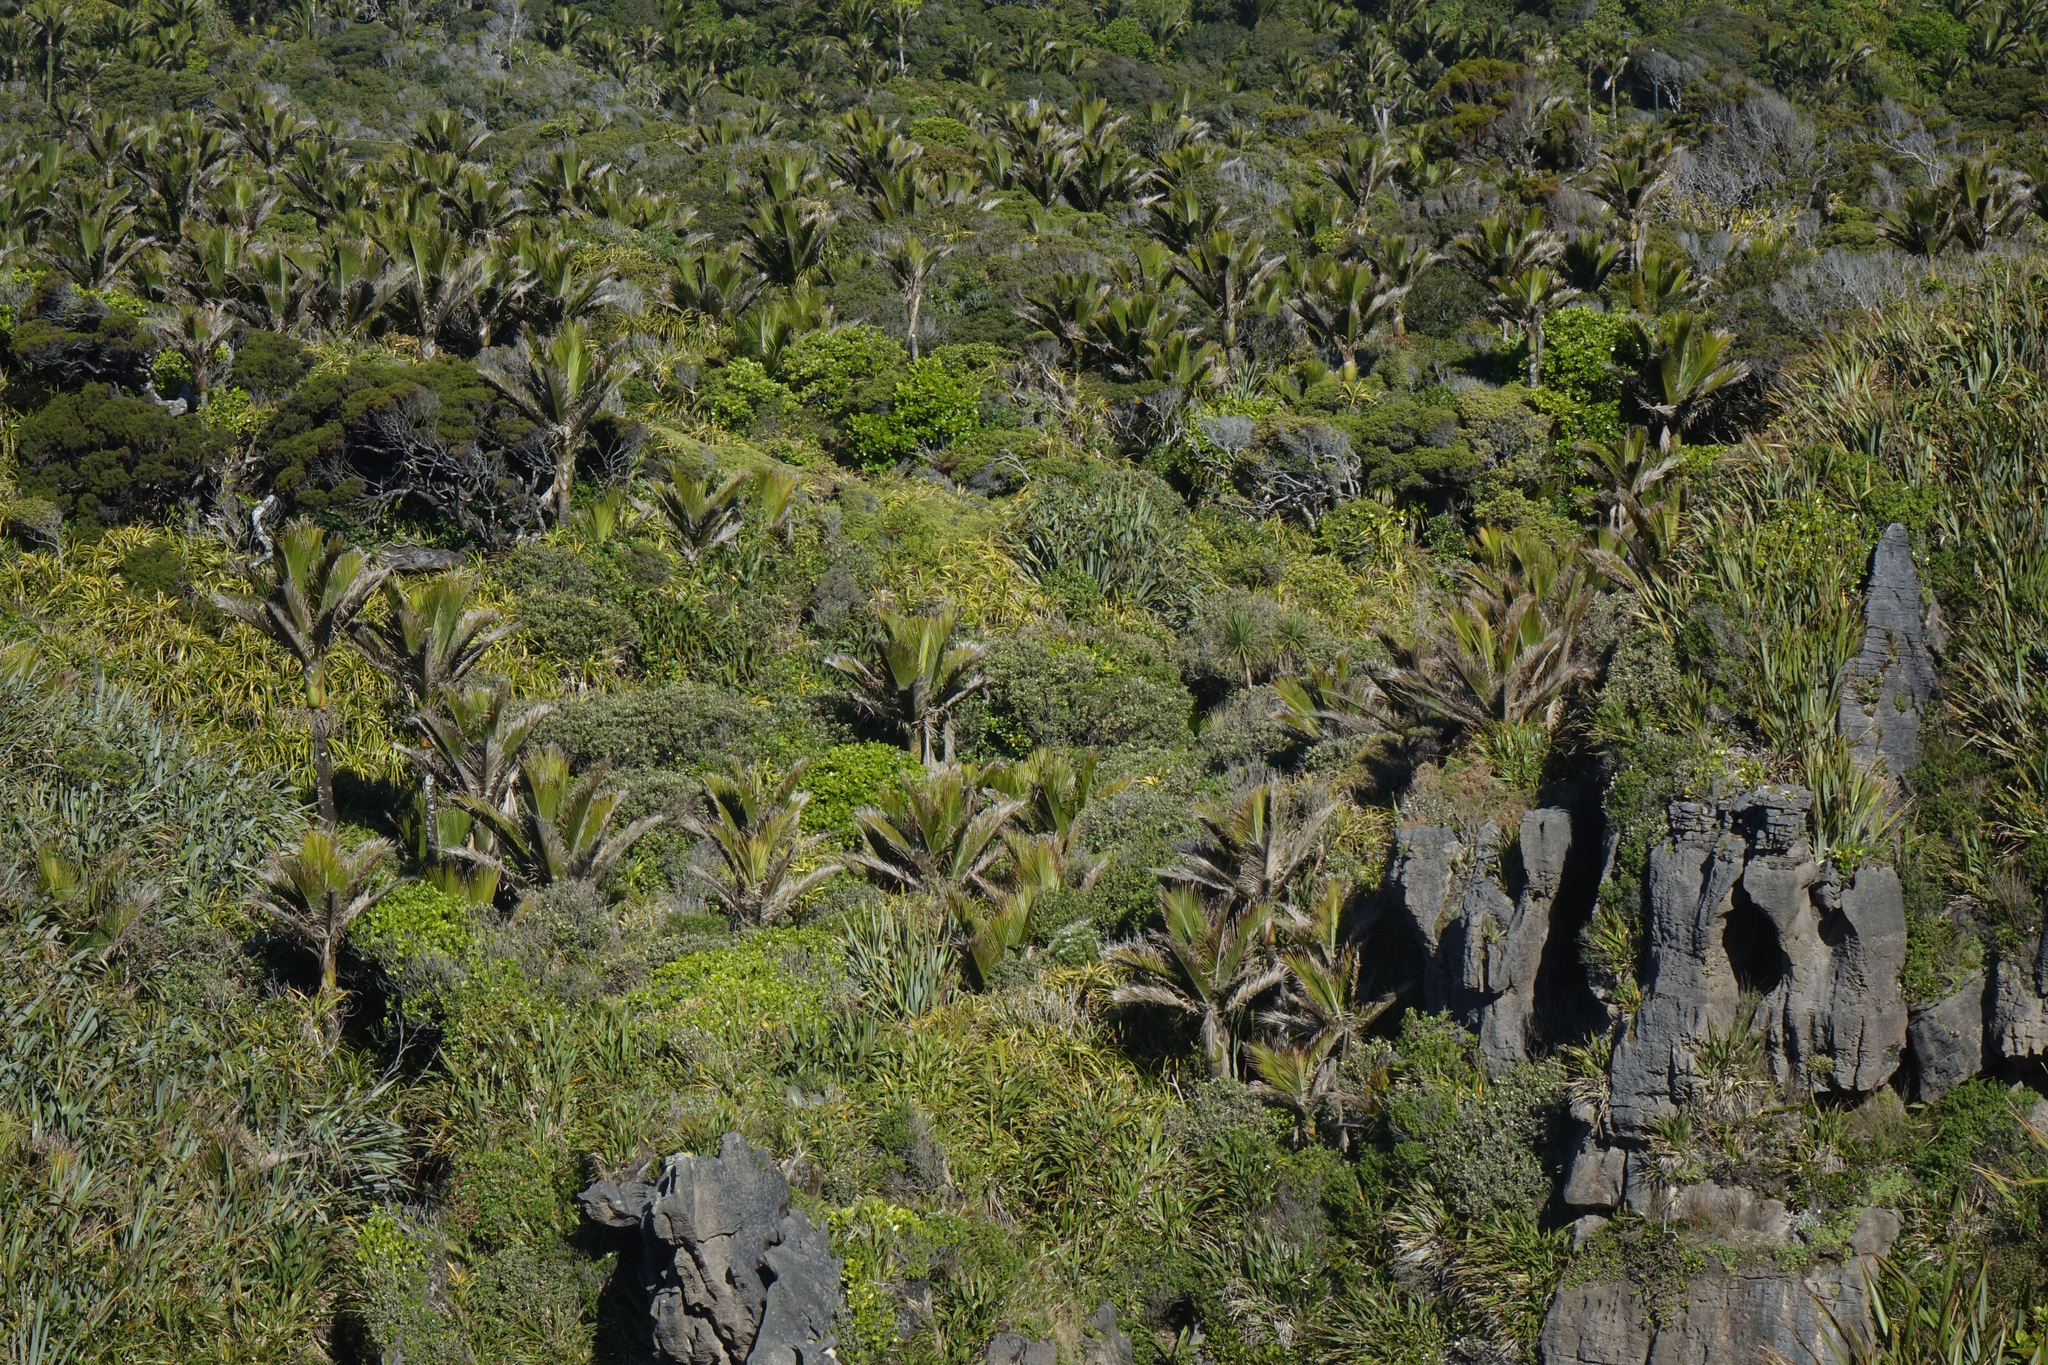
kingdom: Plantae
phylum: Tracheophyta
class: Liliopsida
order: Arecales
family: Arecaceae
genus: Rhopalostylis
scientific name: Rhopalostylis sapida
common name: Feather-duster palm
